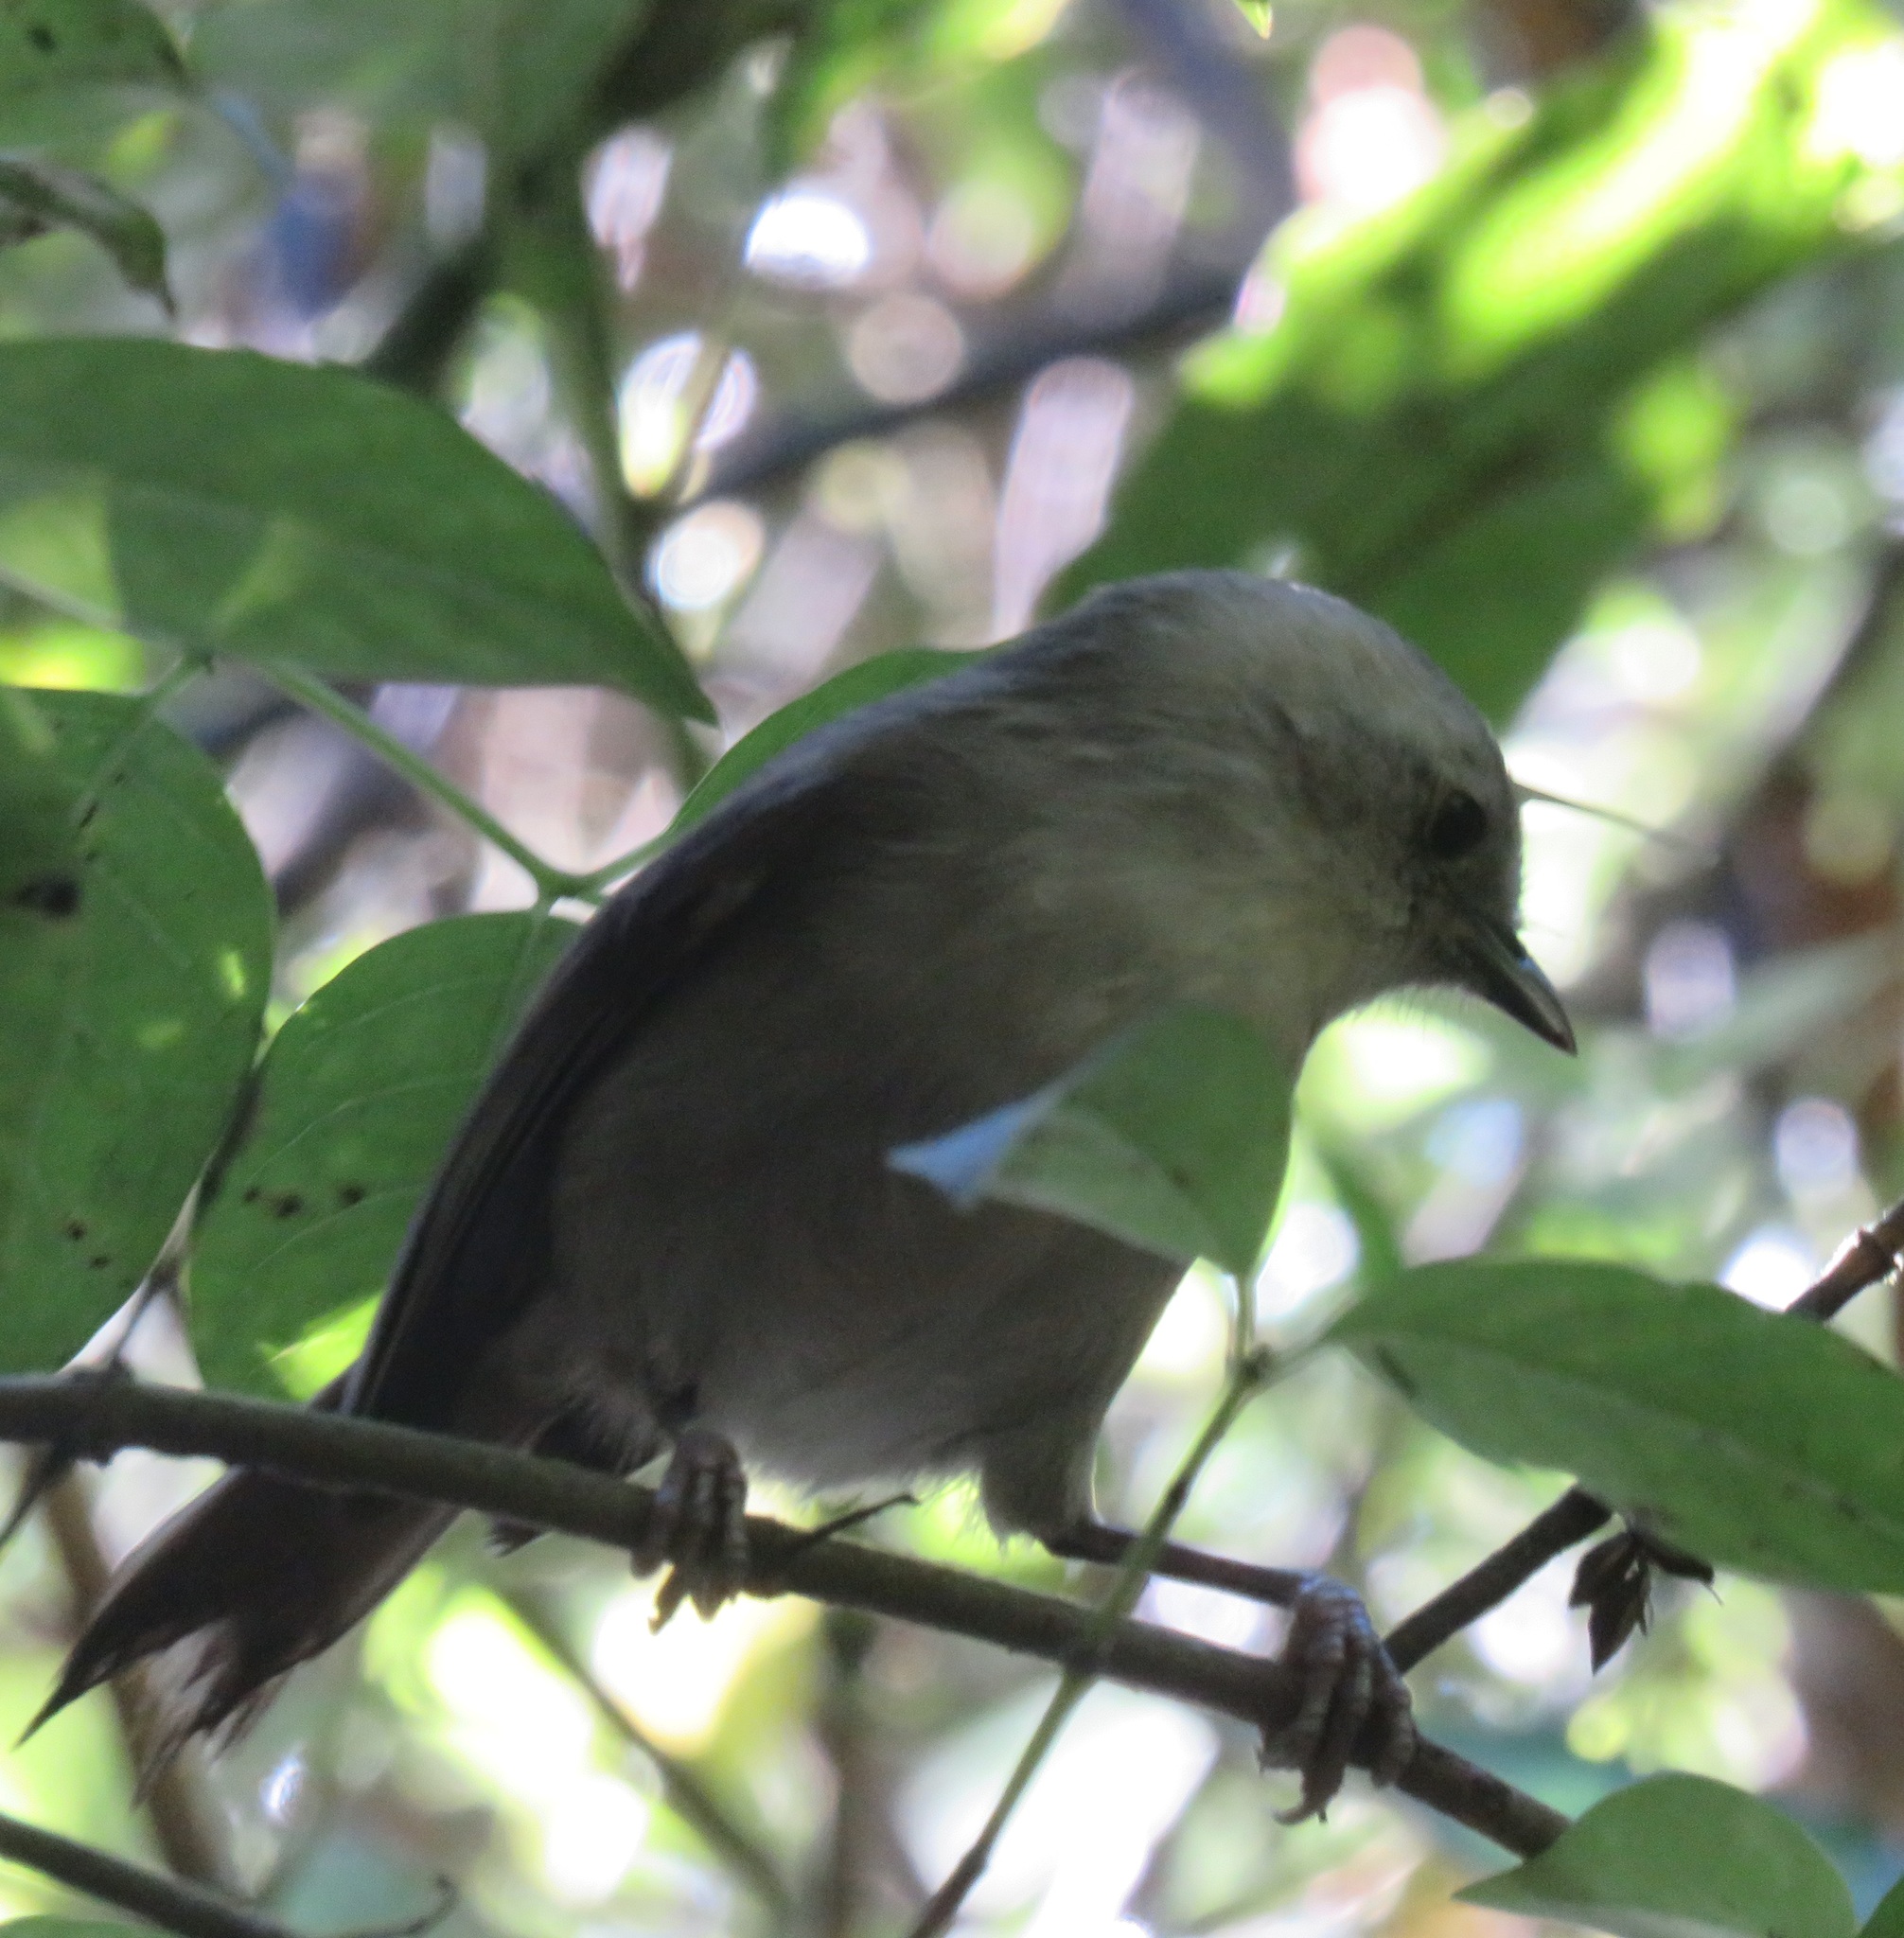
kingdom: Animalia
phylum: Chordata
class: Aves
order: Passeriformes
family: Acanthizidae
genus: Mohoua
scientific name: Mohoua albicilla
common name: Whitehead
